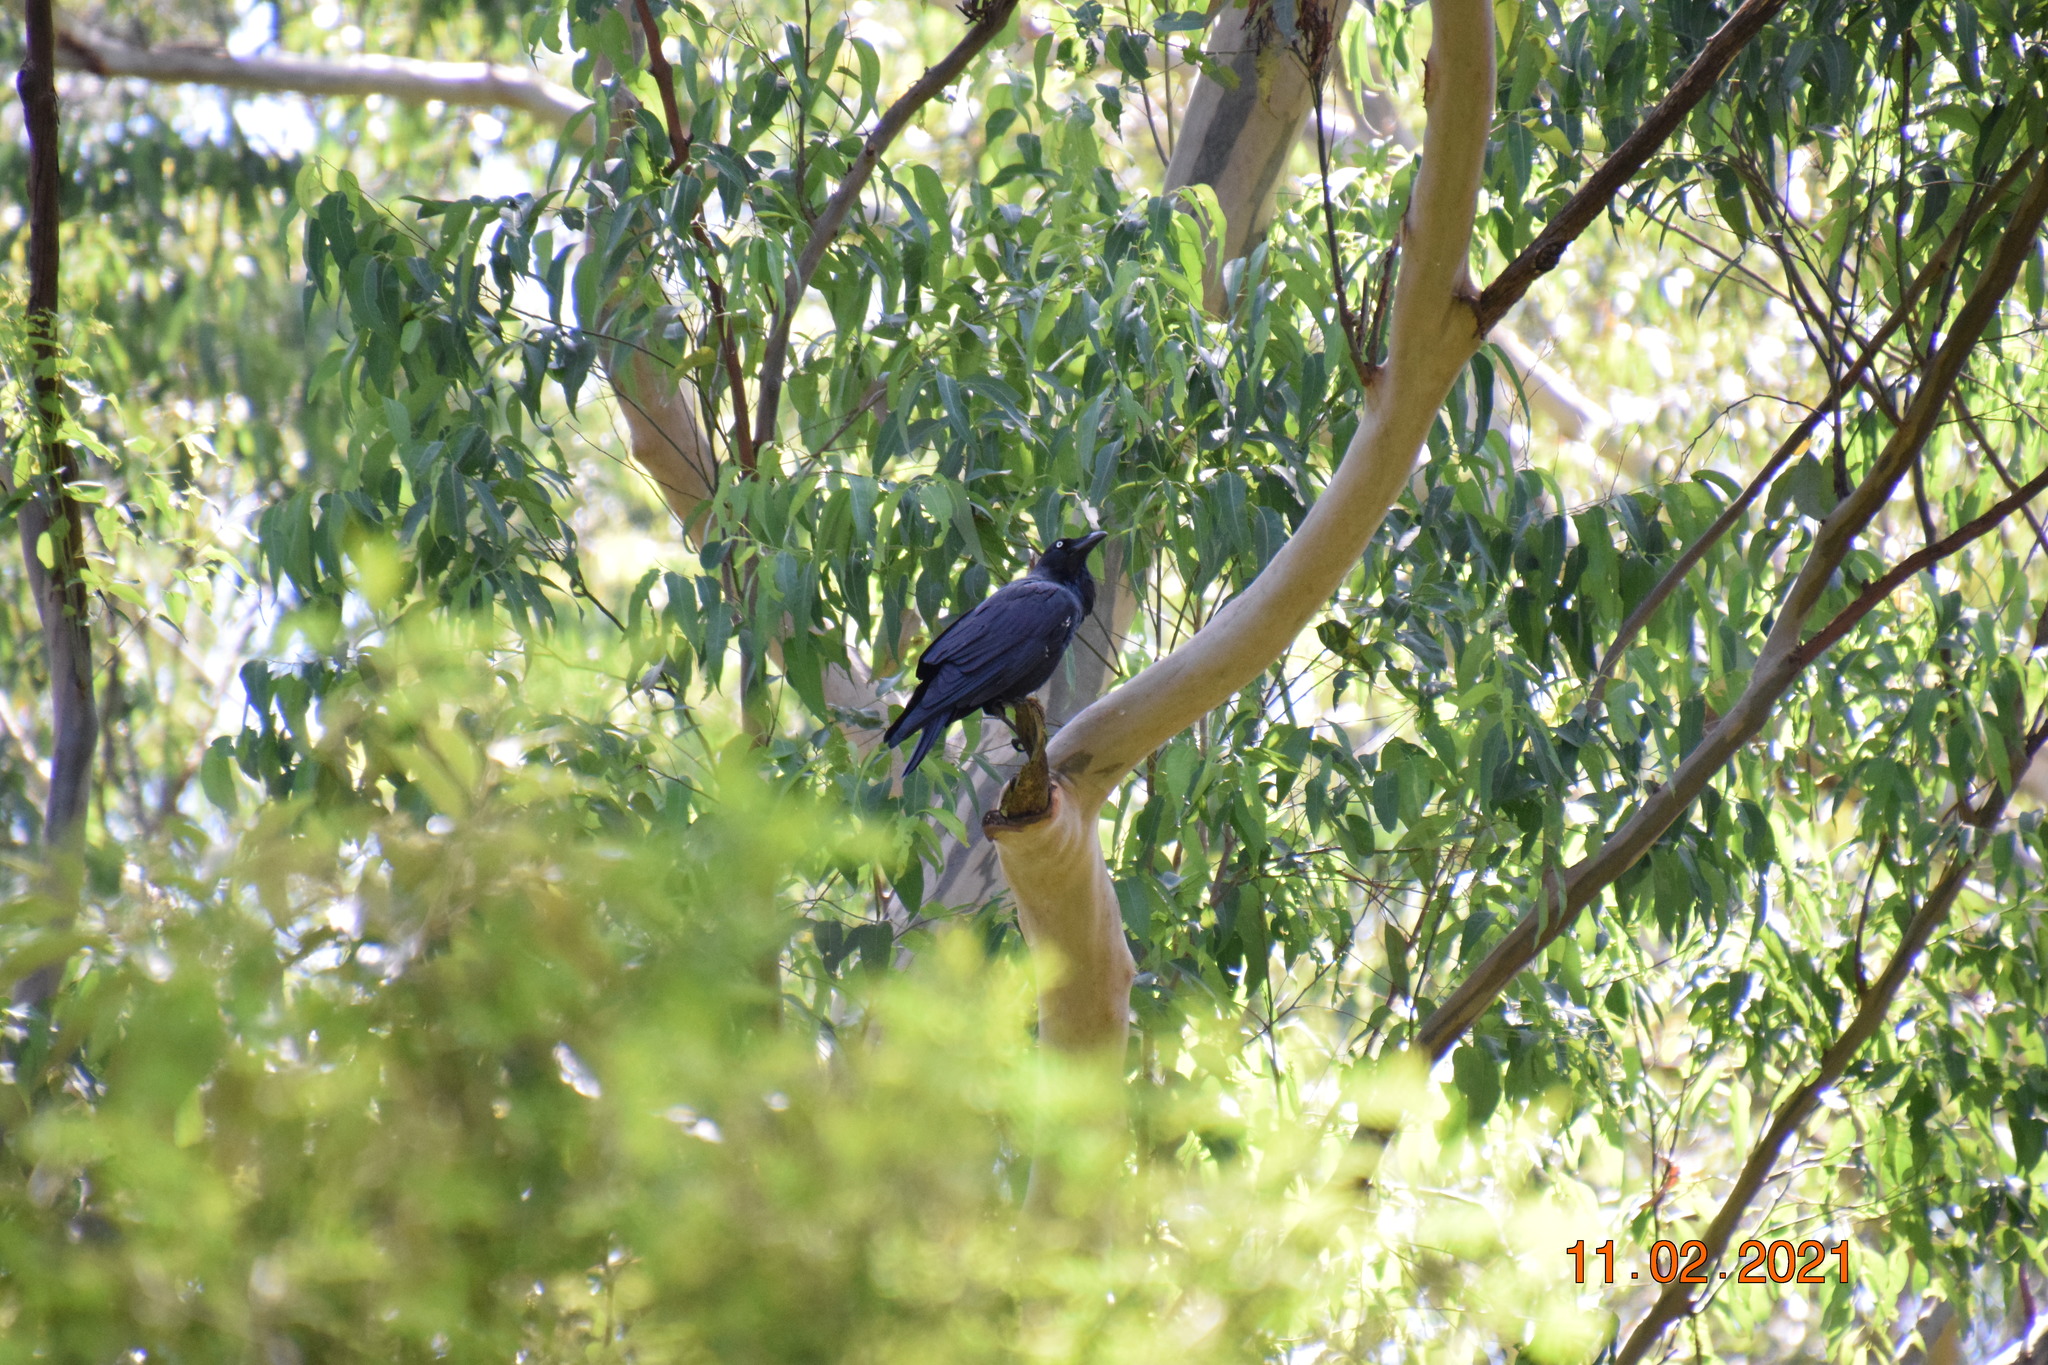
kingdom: Animalia
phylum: Chordata
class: Aves
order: Passeriformes
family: Corvidae
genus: Corvus
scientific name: Corvus coronoides
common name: Australian raven
